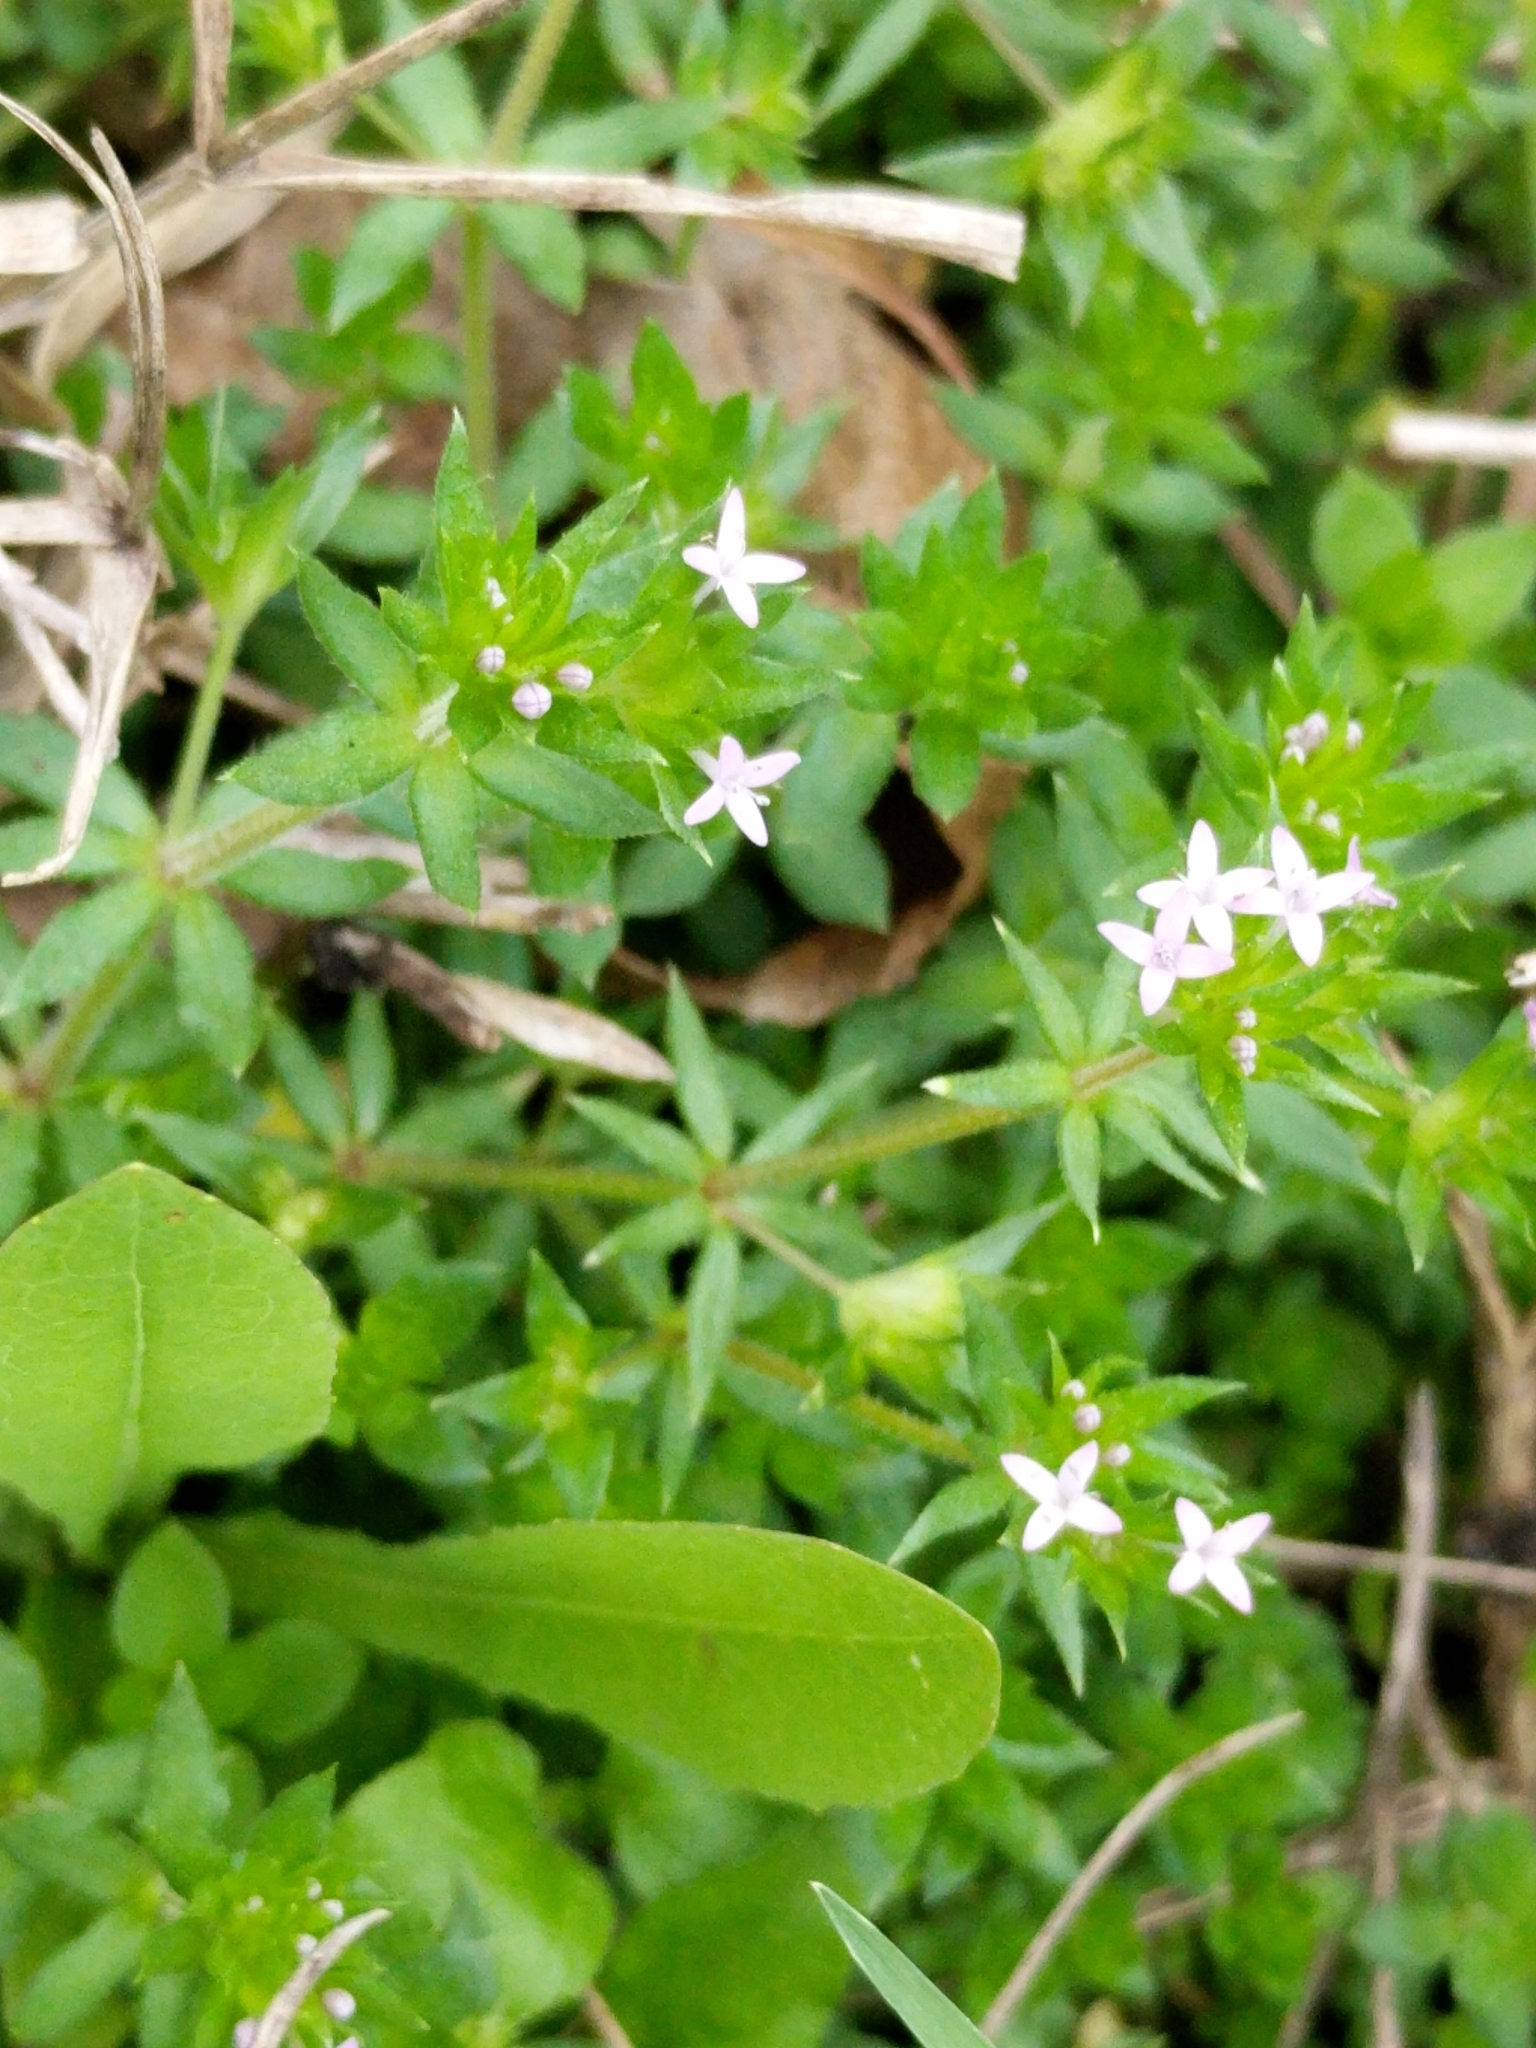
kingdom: Plantae
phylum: Tracheophyta
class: Magnoliopsida
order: Gentianales
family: Rubiaceae
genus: Sherardia
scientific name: Sherardia arvensis
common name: Field madder
